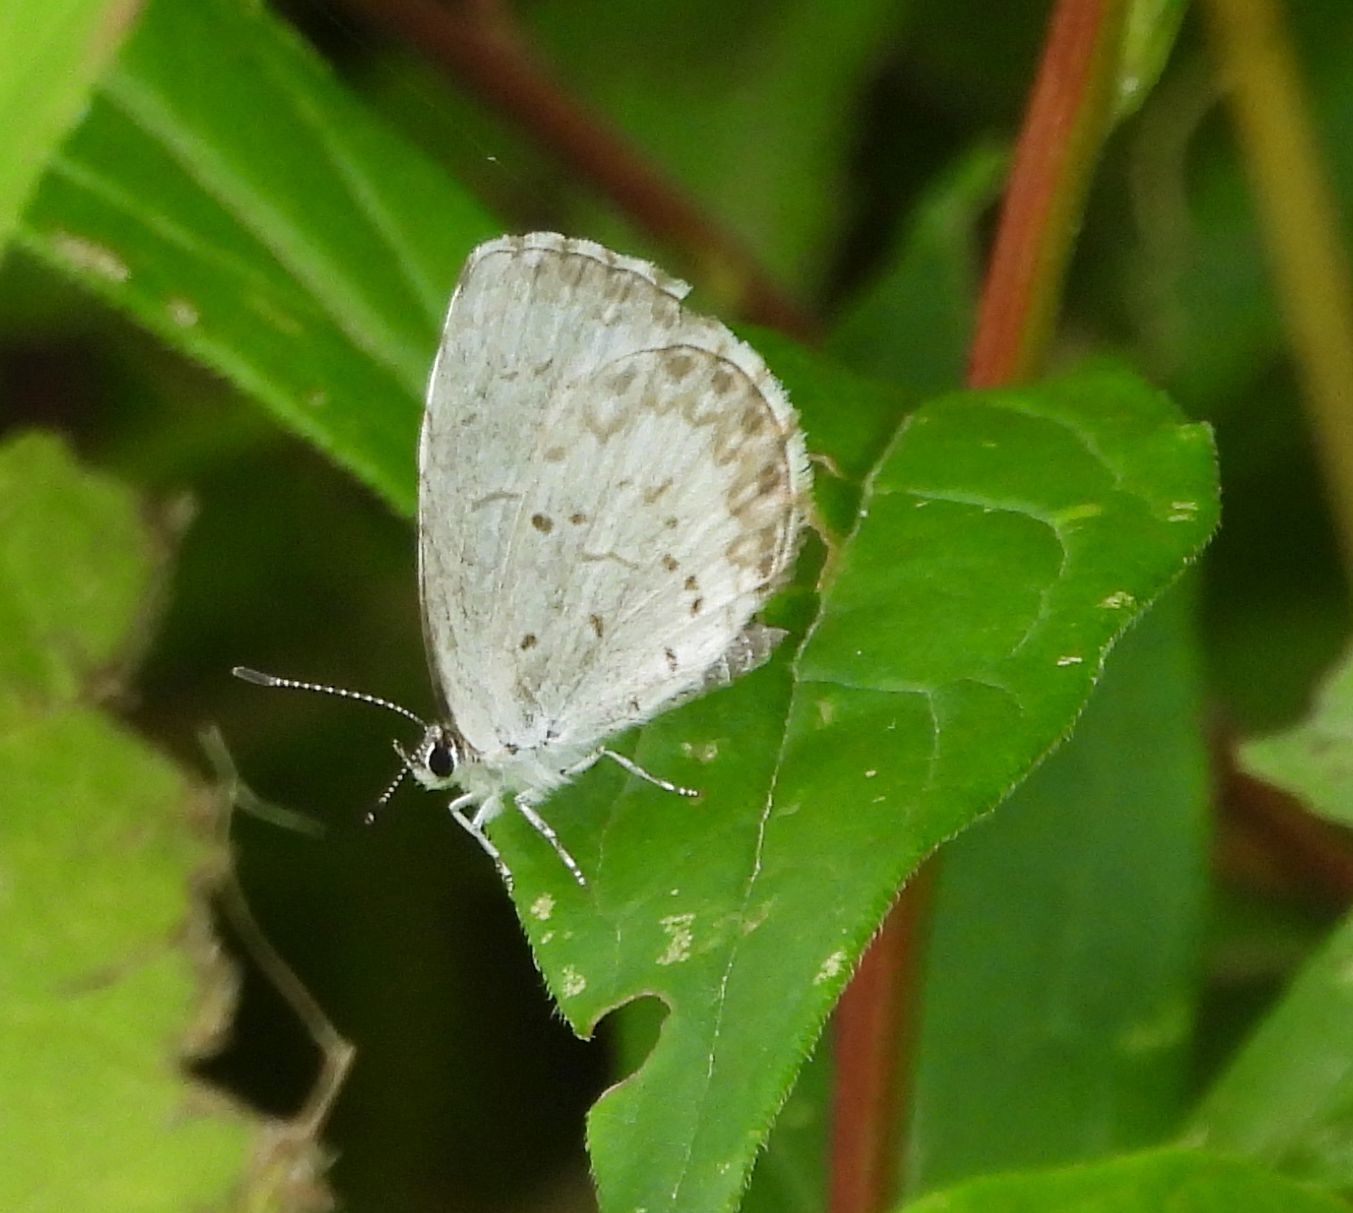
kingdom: Animalia
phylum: Arthropoda
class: Insecta
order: Lepidoptera
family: Lycaenidae
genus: Celastrina
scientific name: Celastrina lucia
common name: Lucia azure
